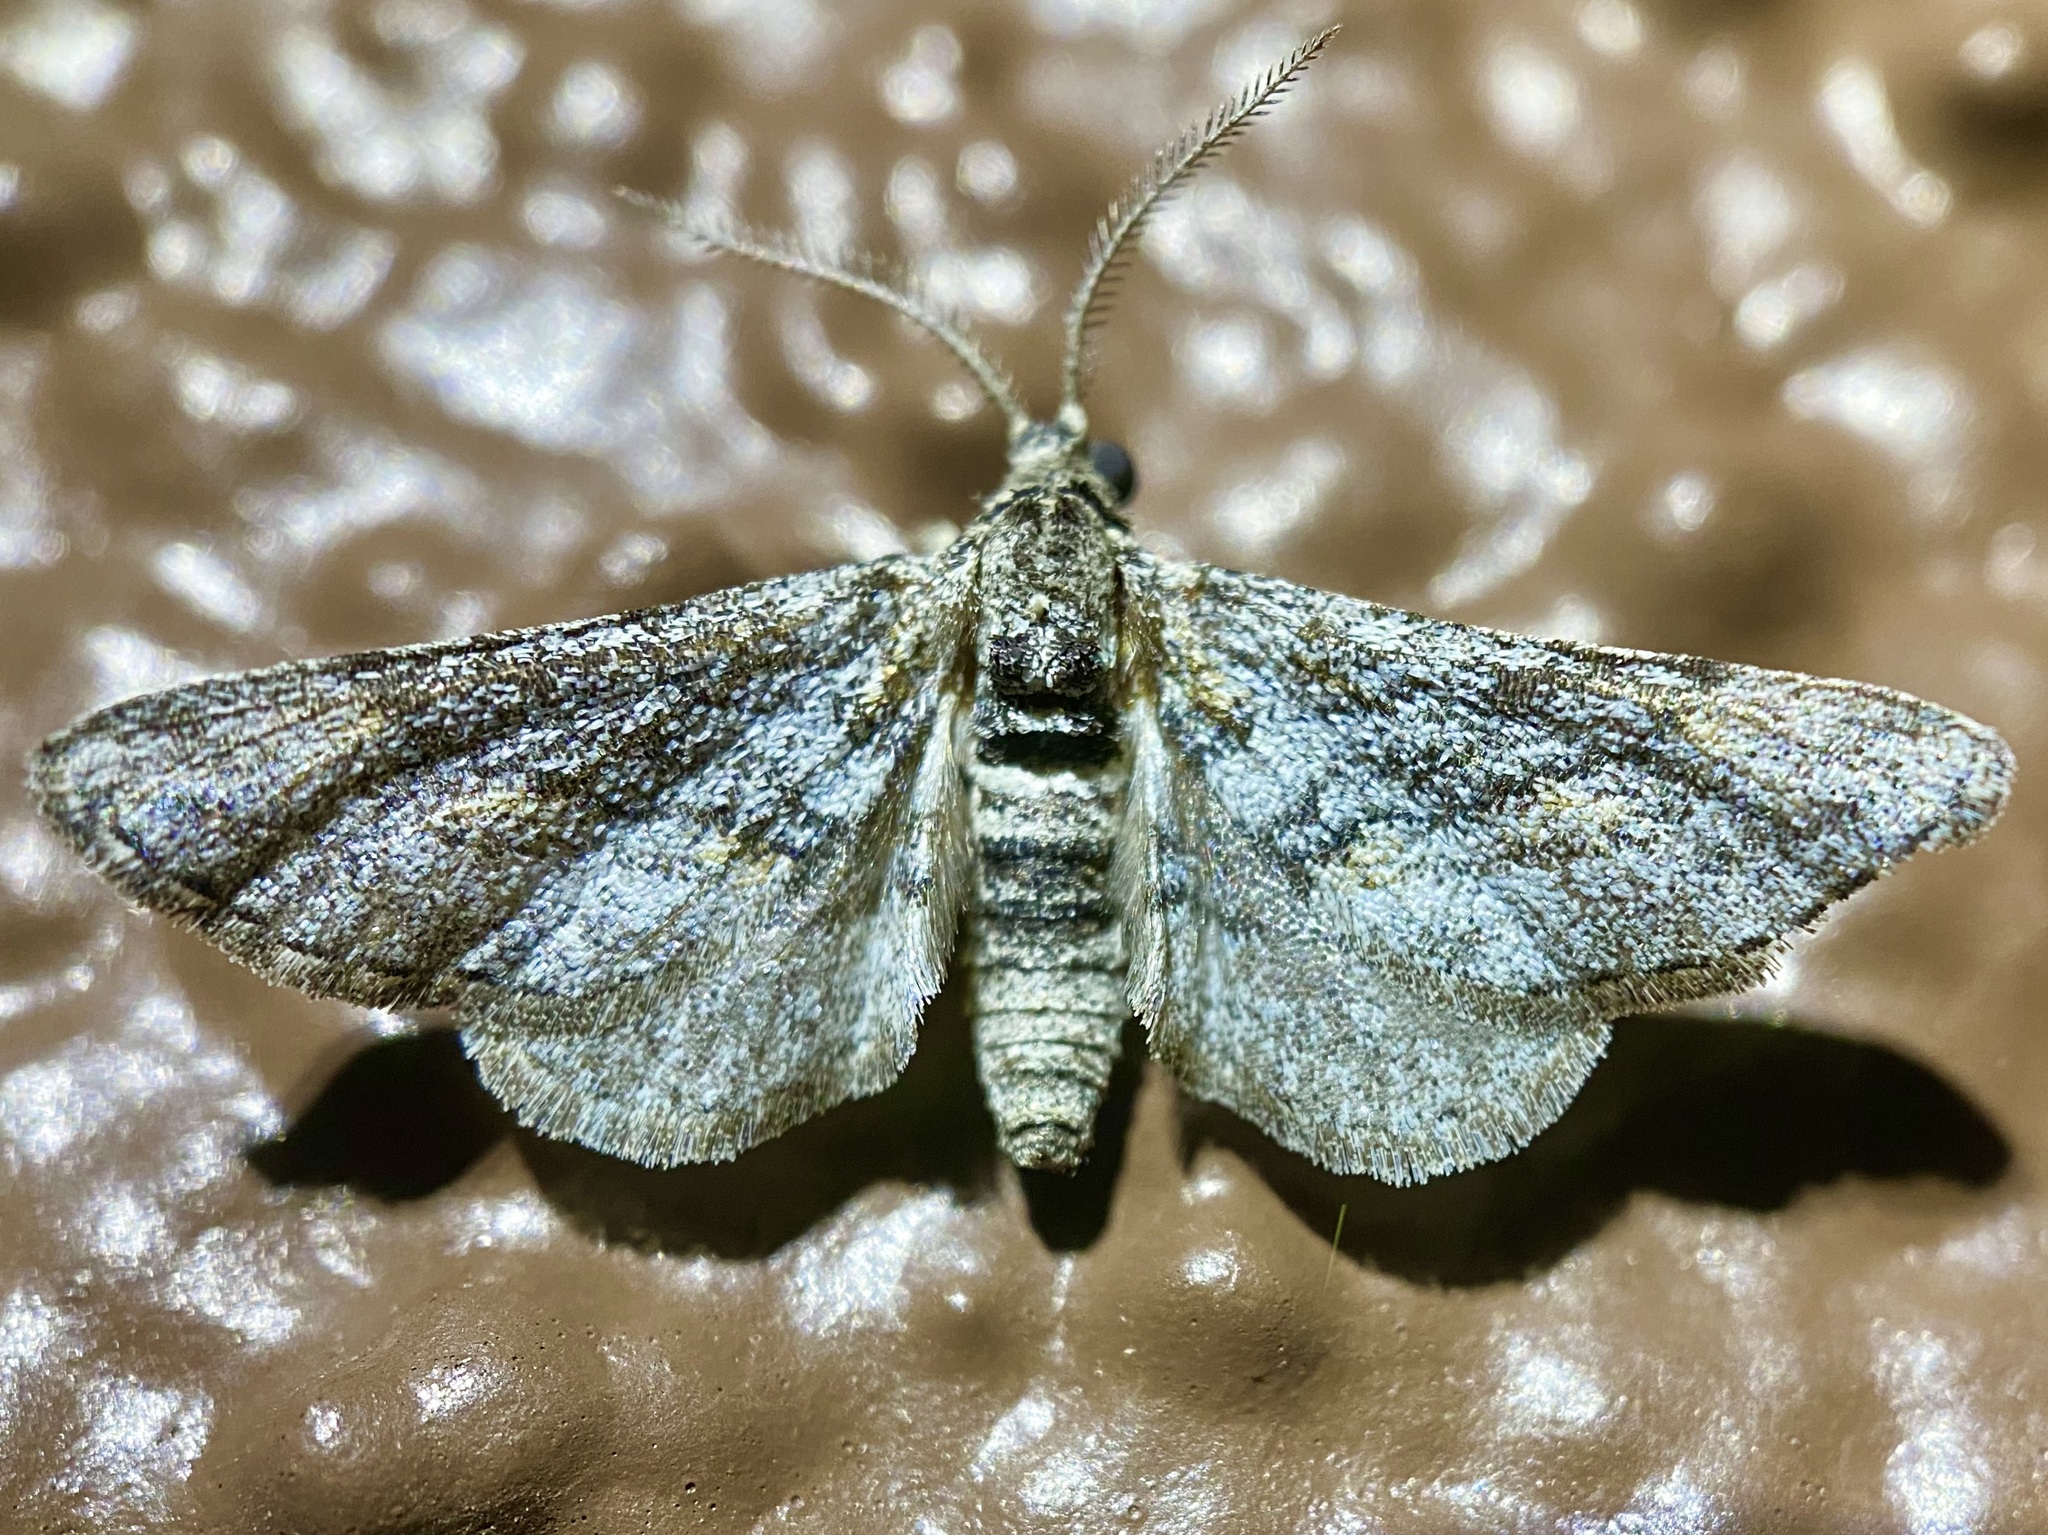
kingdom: Animalia
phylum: Arthropoda
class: Insecta
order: Lepidoptera
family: Geometridae
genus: Eubarnesia
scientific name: Eubarnesia ritaria
